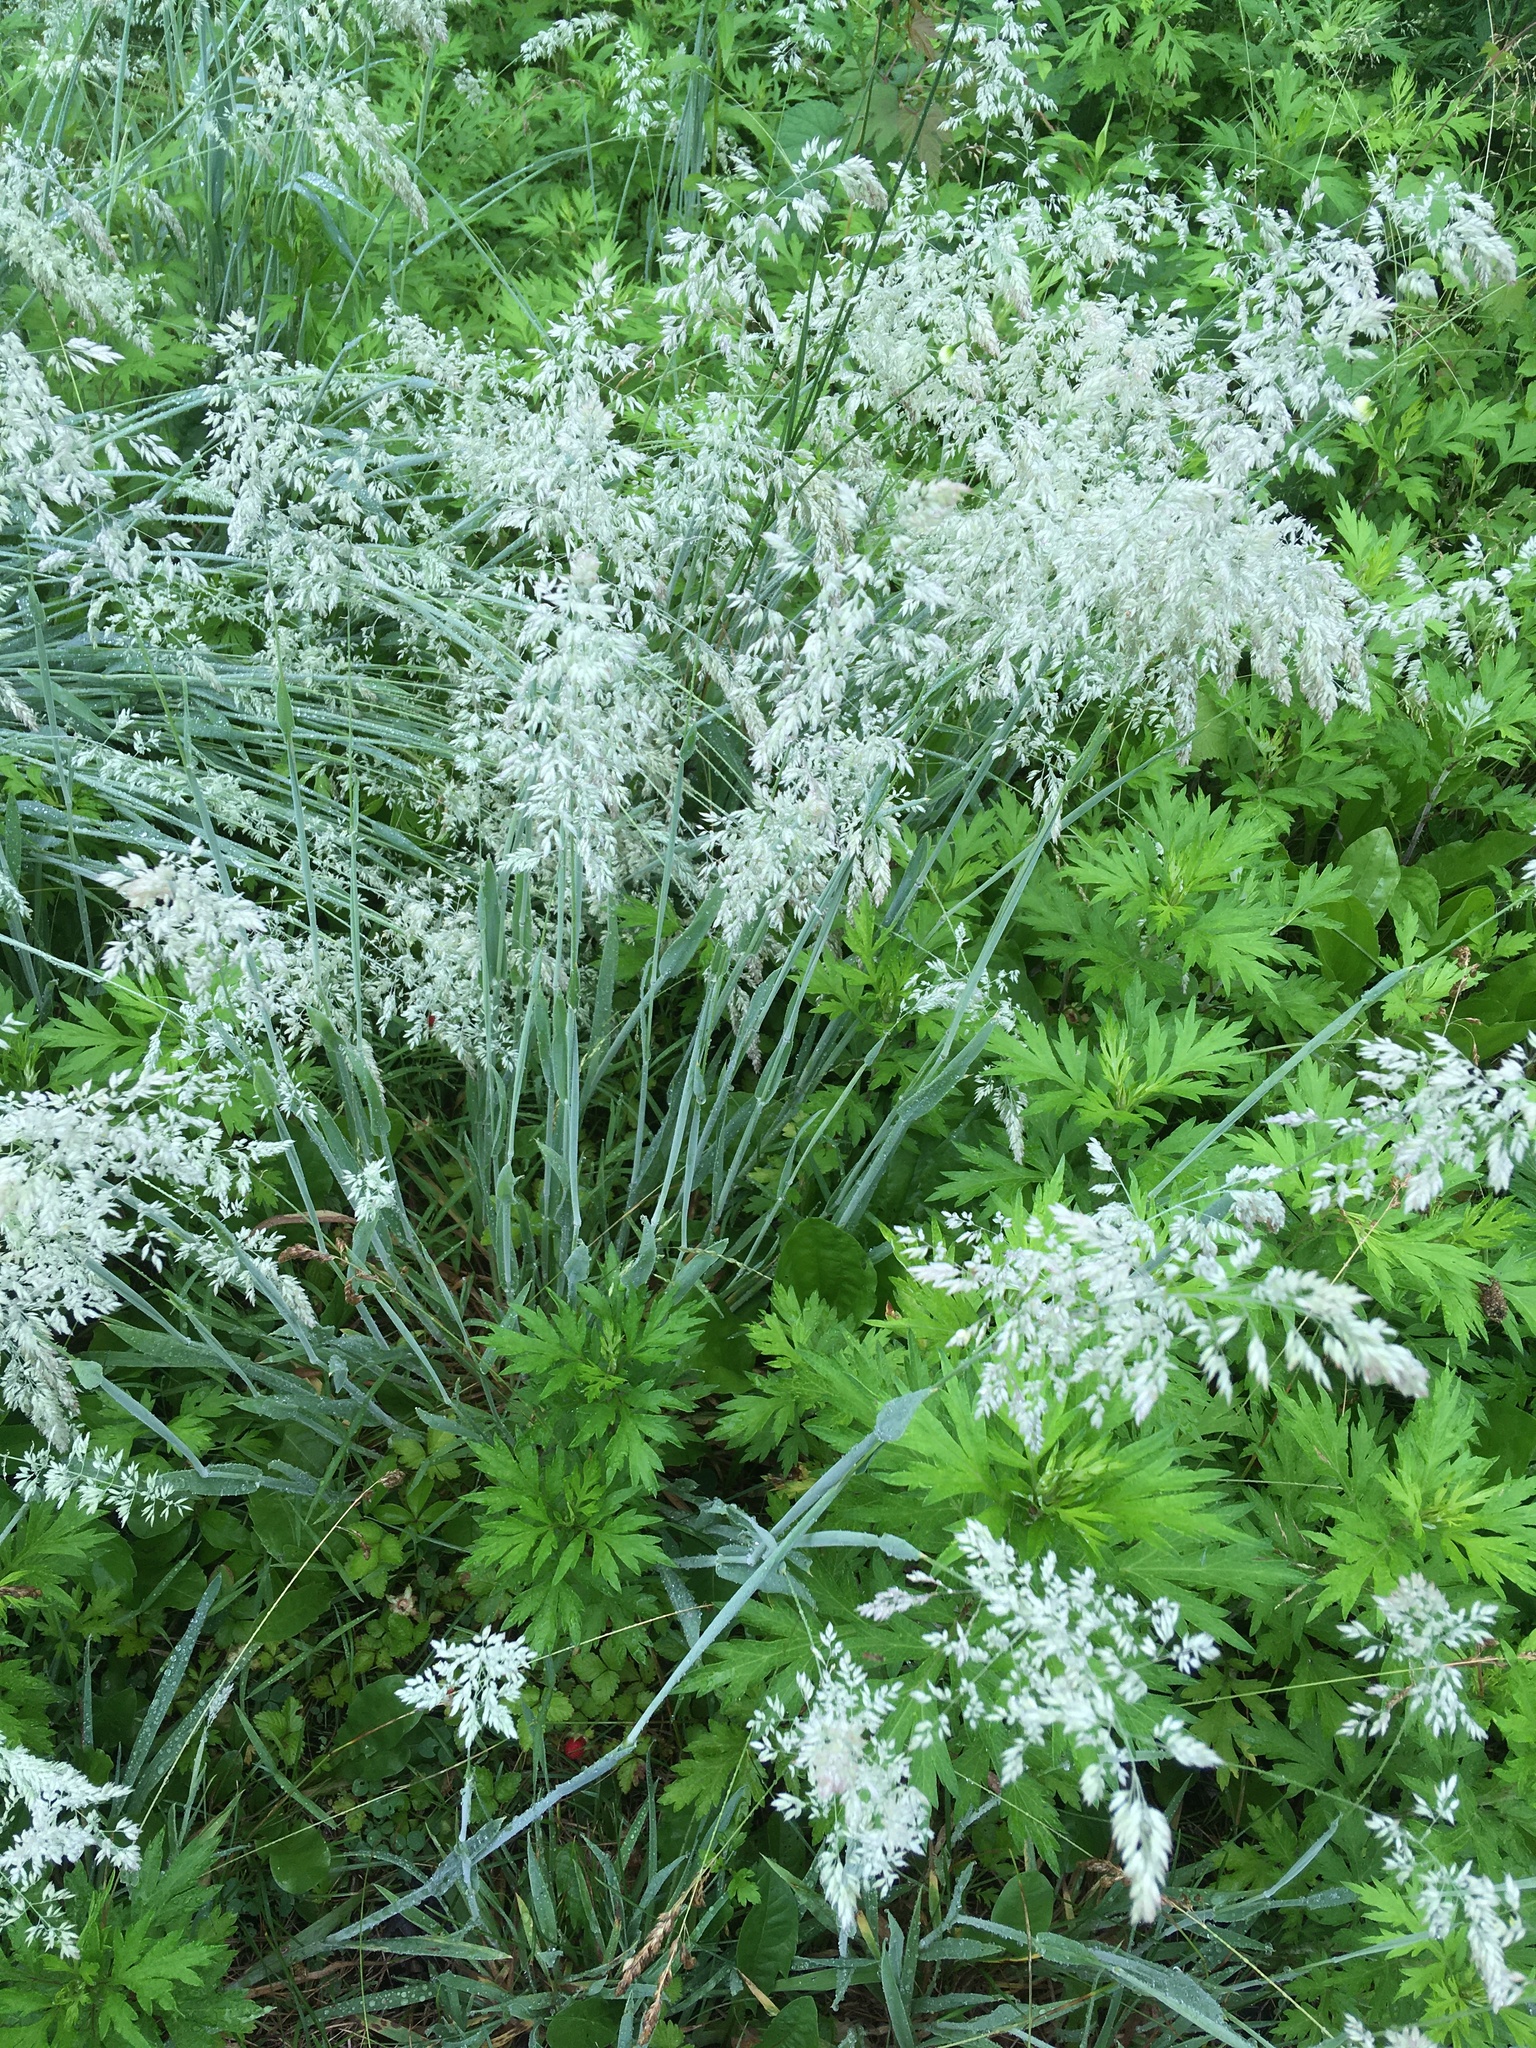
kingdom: Plantae
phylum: Tracheophyta
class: Liliopsida
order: Poales
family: Poaceae
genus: Holcus
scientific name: Holcus lanatus
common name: Yorkshire-fog
